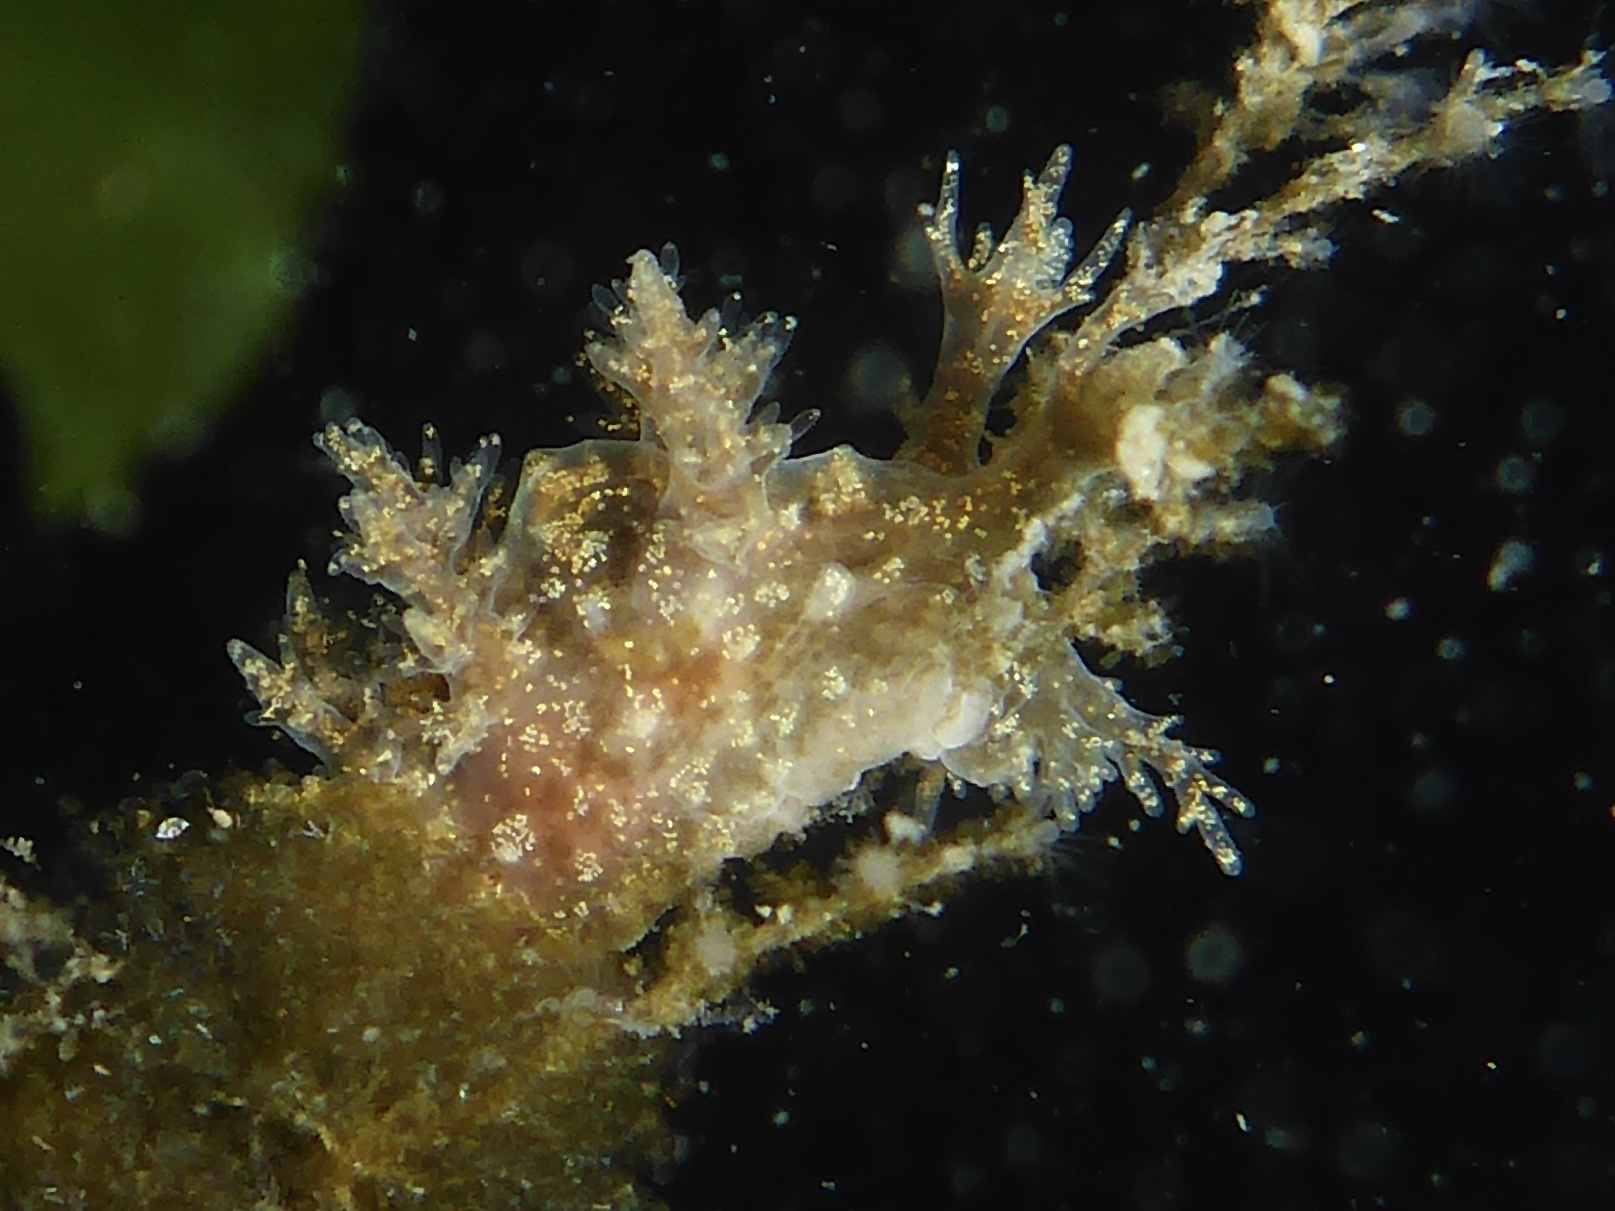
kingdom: Animalia
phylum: Mollusca
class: Gastropoda
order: Nudibranchia
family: Dendronotidae
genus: Dendronotus
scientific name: Dendronotus venustus
